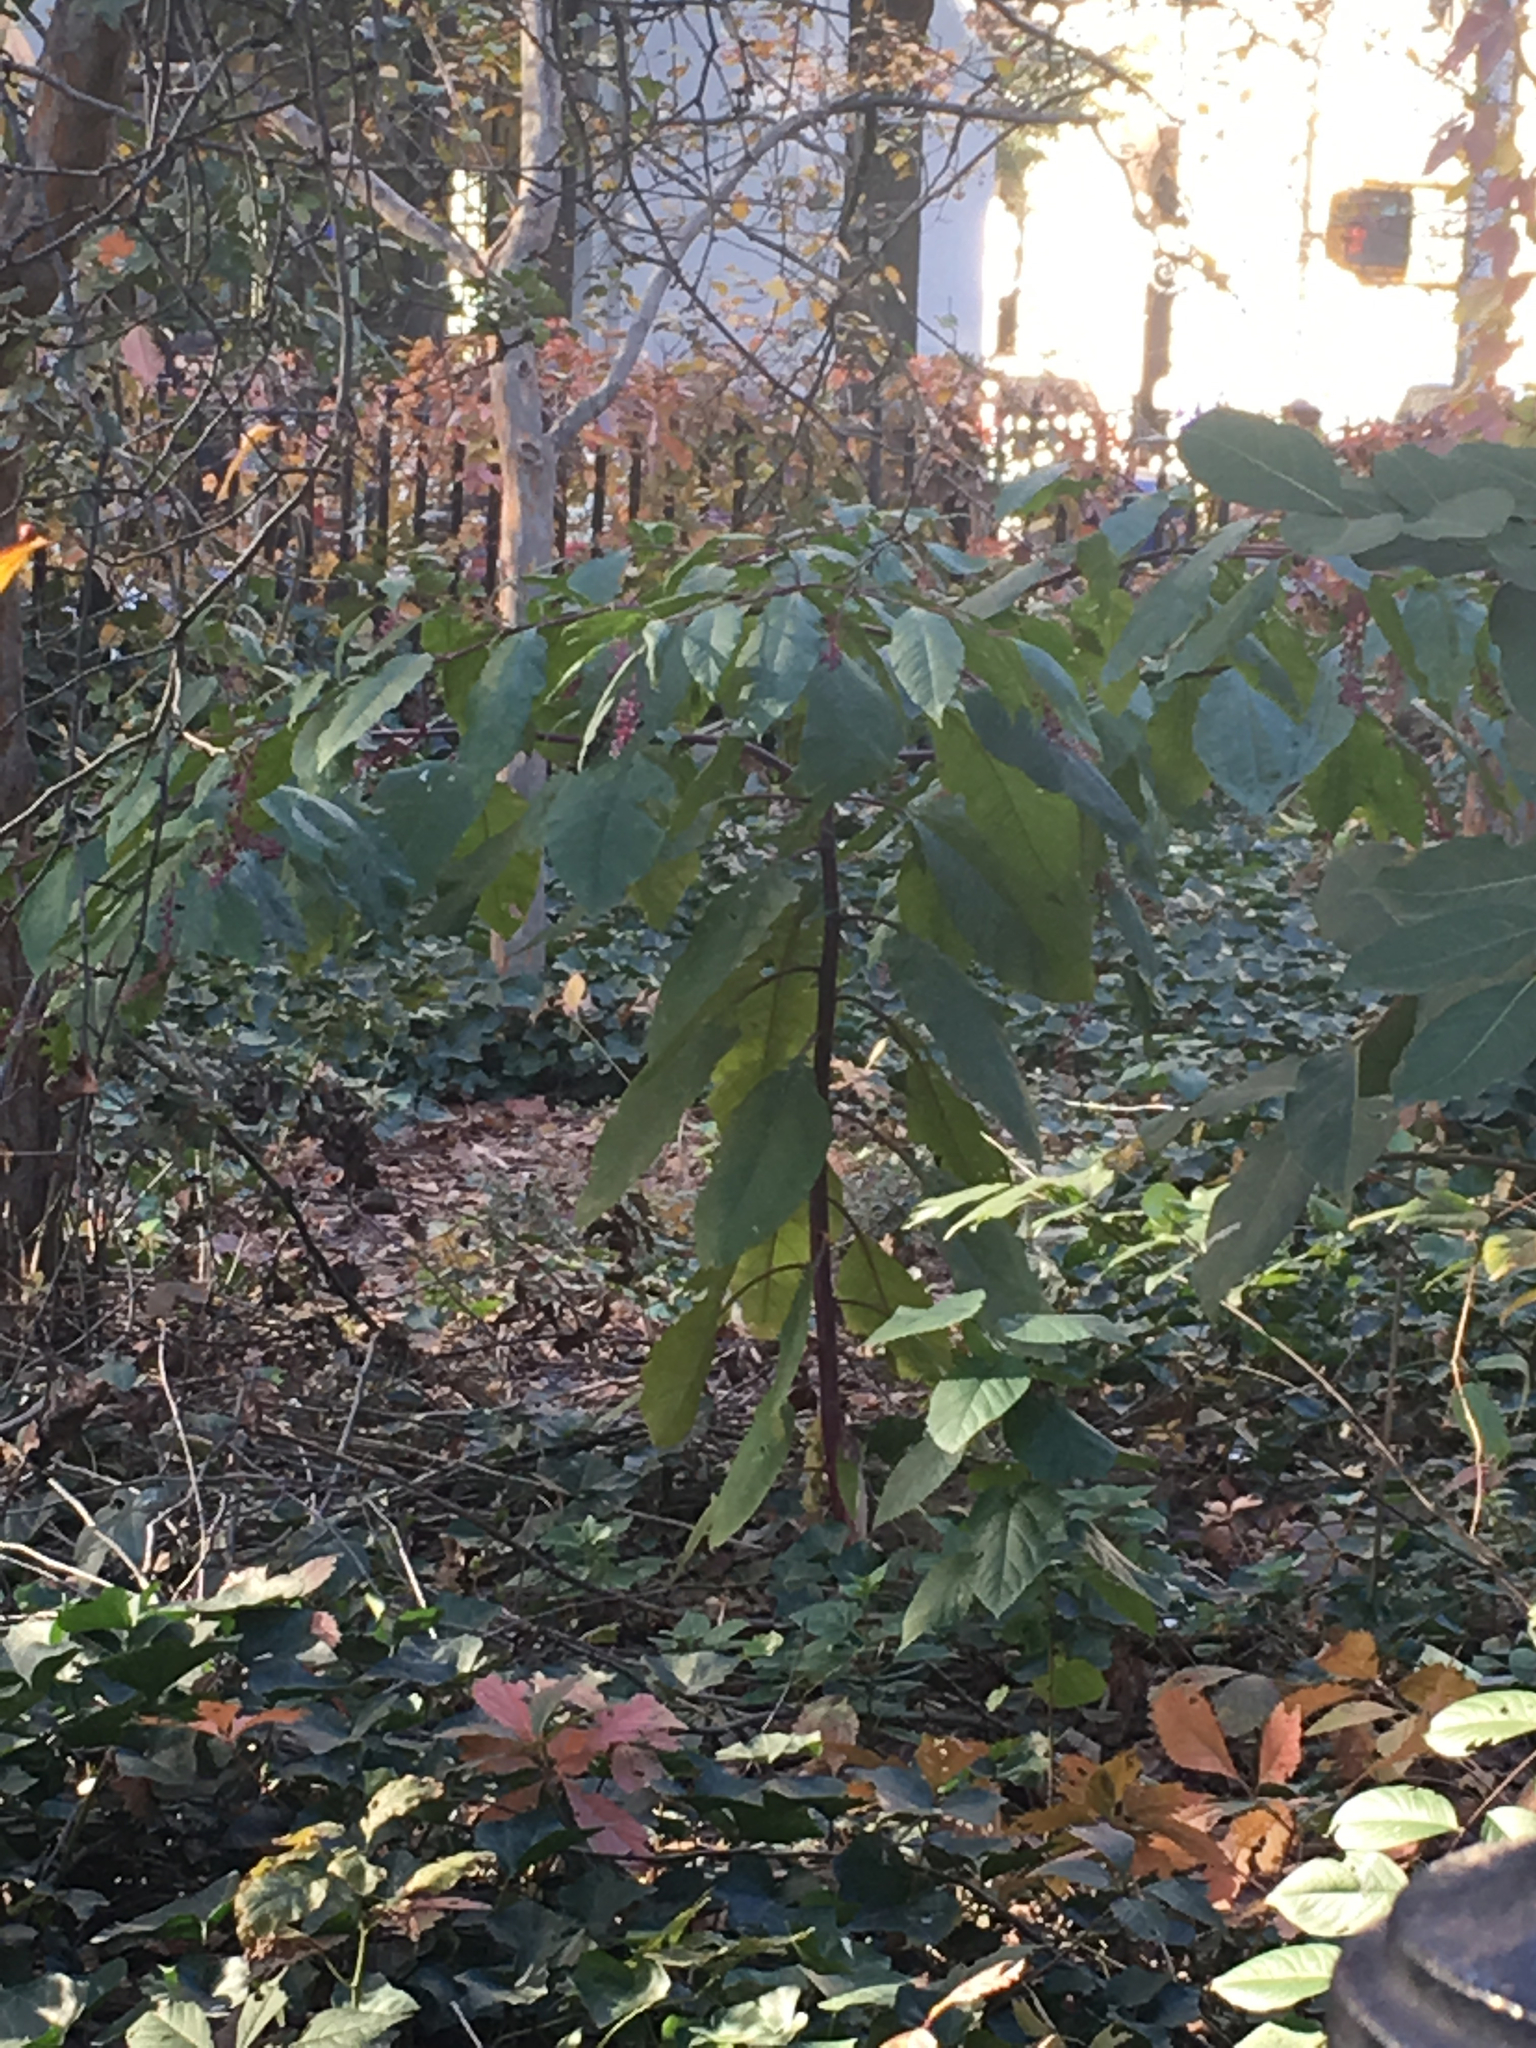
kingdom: Plantae
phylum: Tracheophyta
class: Magnoliopsida
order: Caryophyllales
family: Phytolaccaceae
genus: Phytolacca
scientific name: Phytolacca americana
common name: American pokeweed
